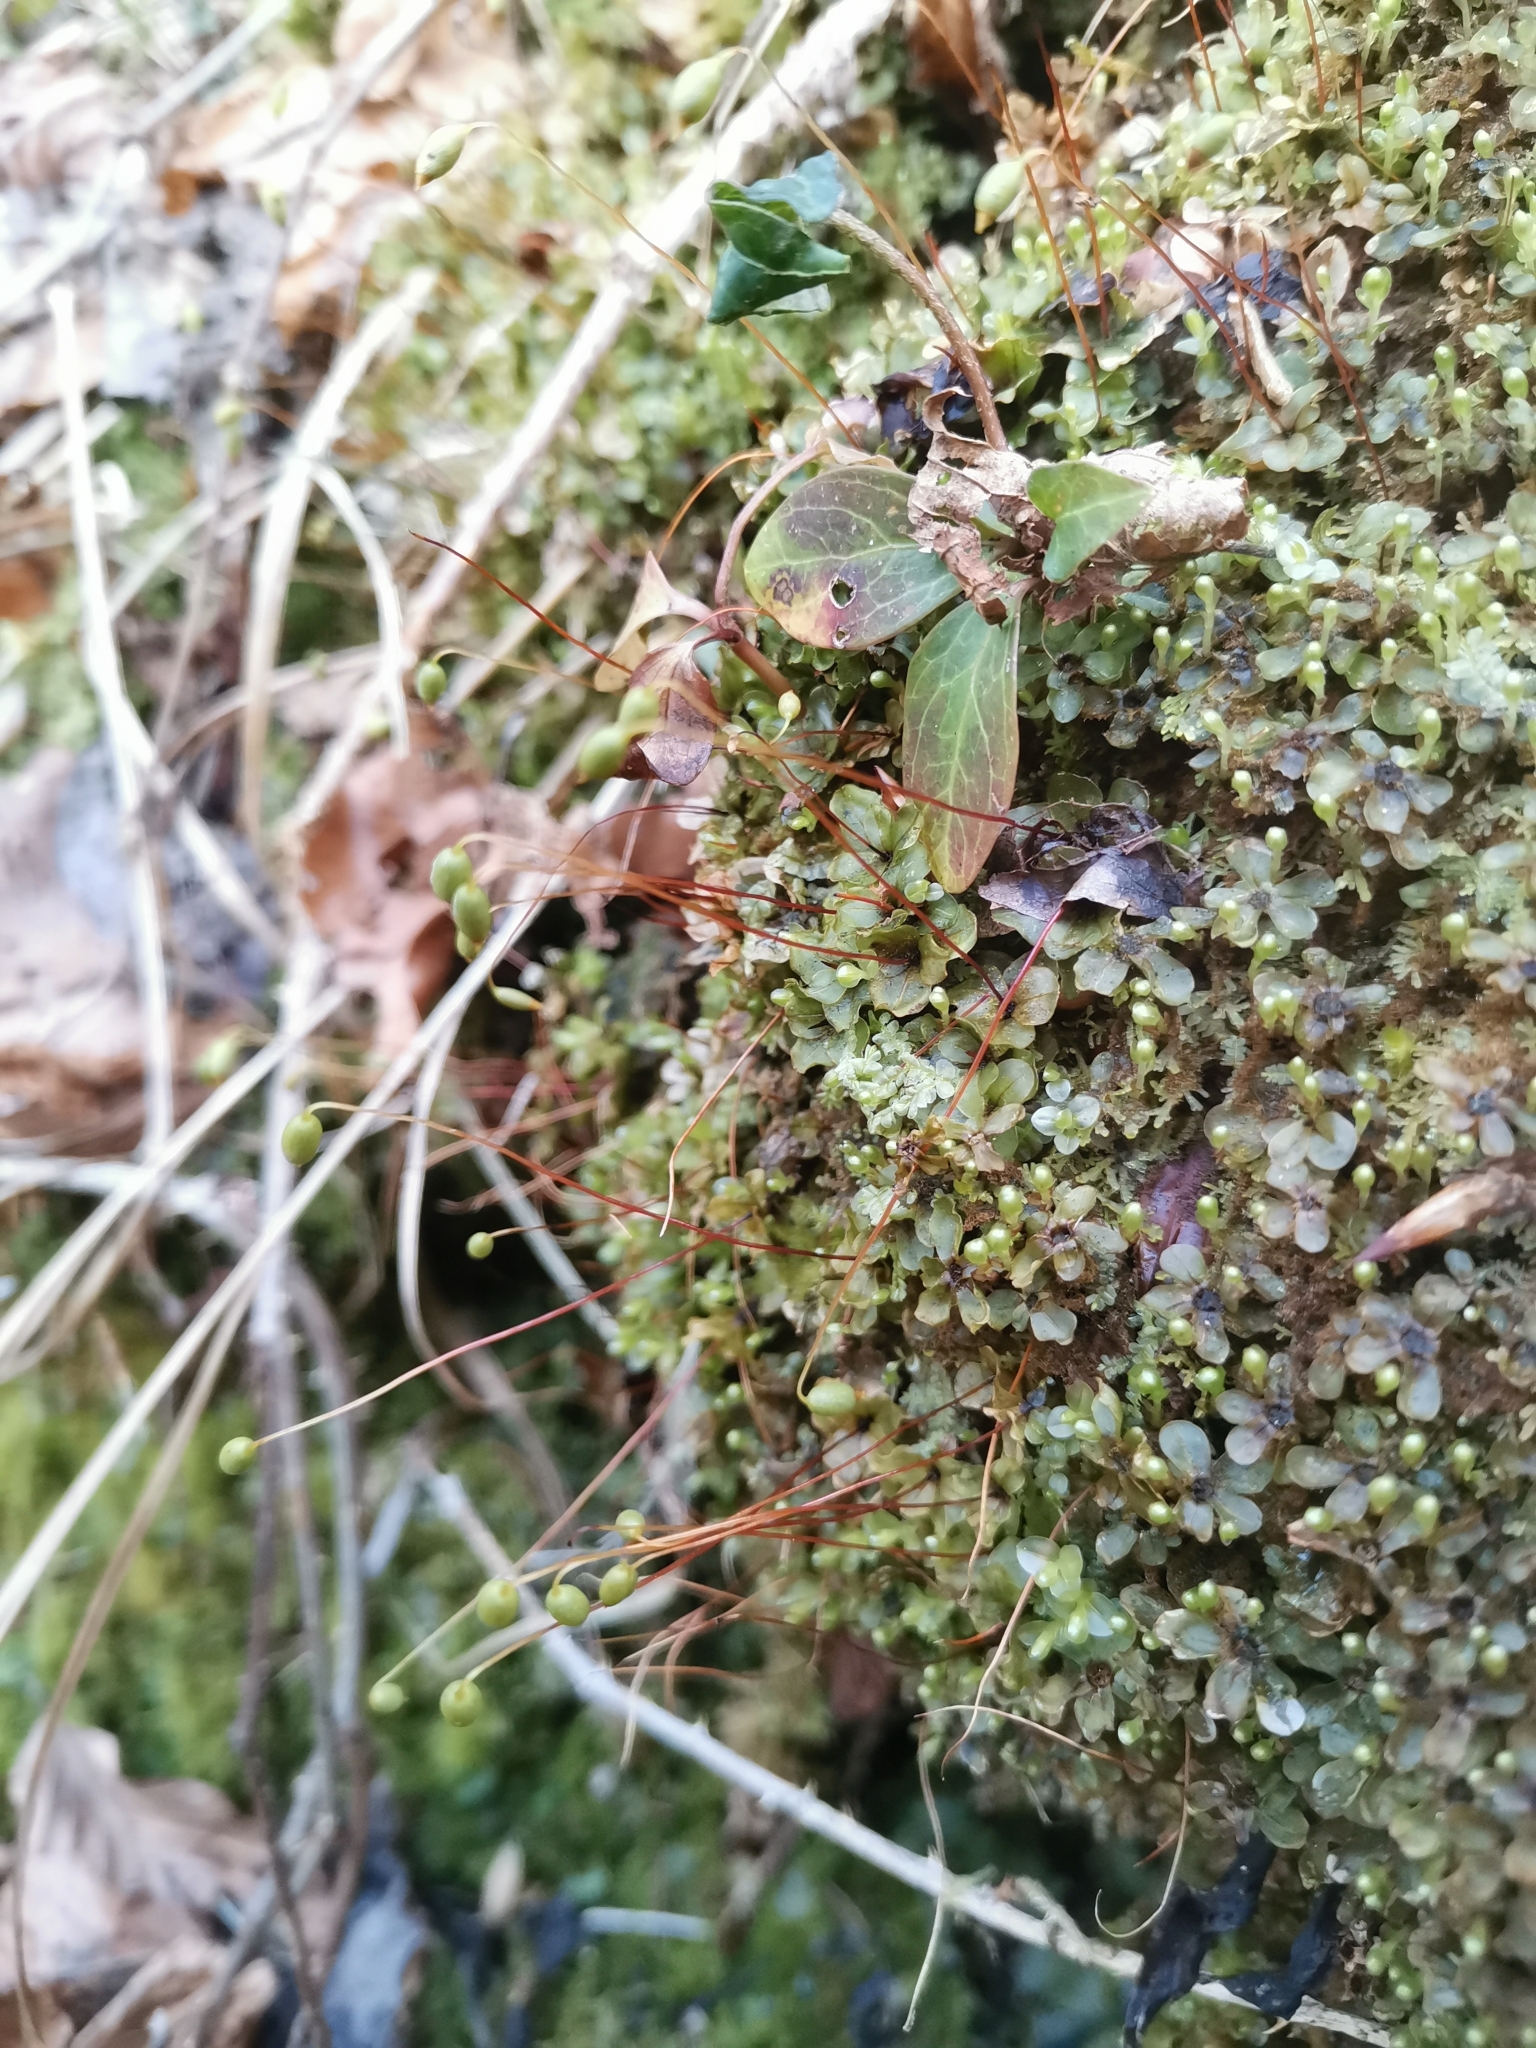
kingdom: Plantae
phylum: Bryophyta
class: Bryopsida
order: Bryales
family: Mniaceae
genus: Rhizomnium
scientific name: Rhizomnium punctatum
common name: Dotted leafy moss
